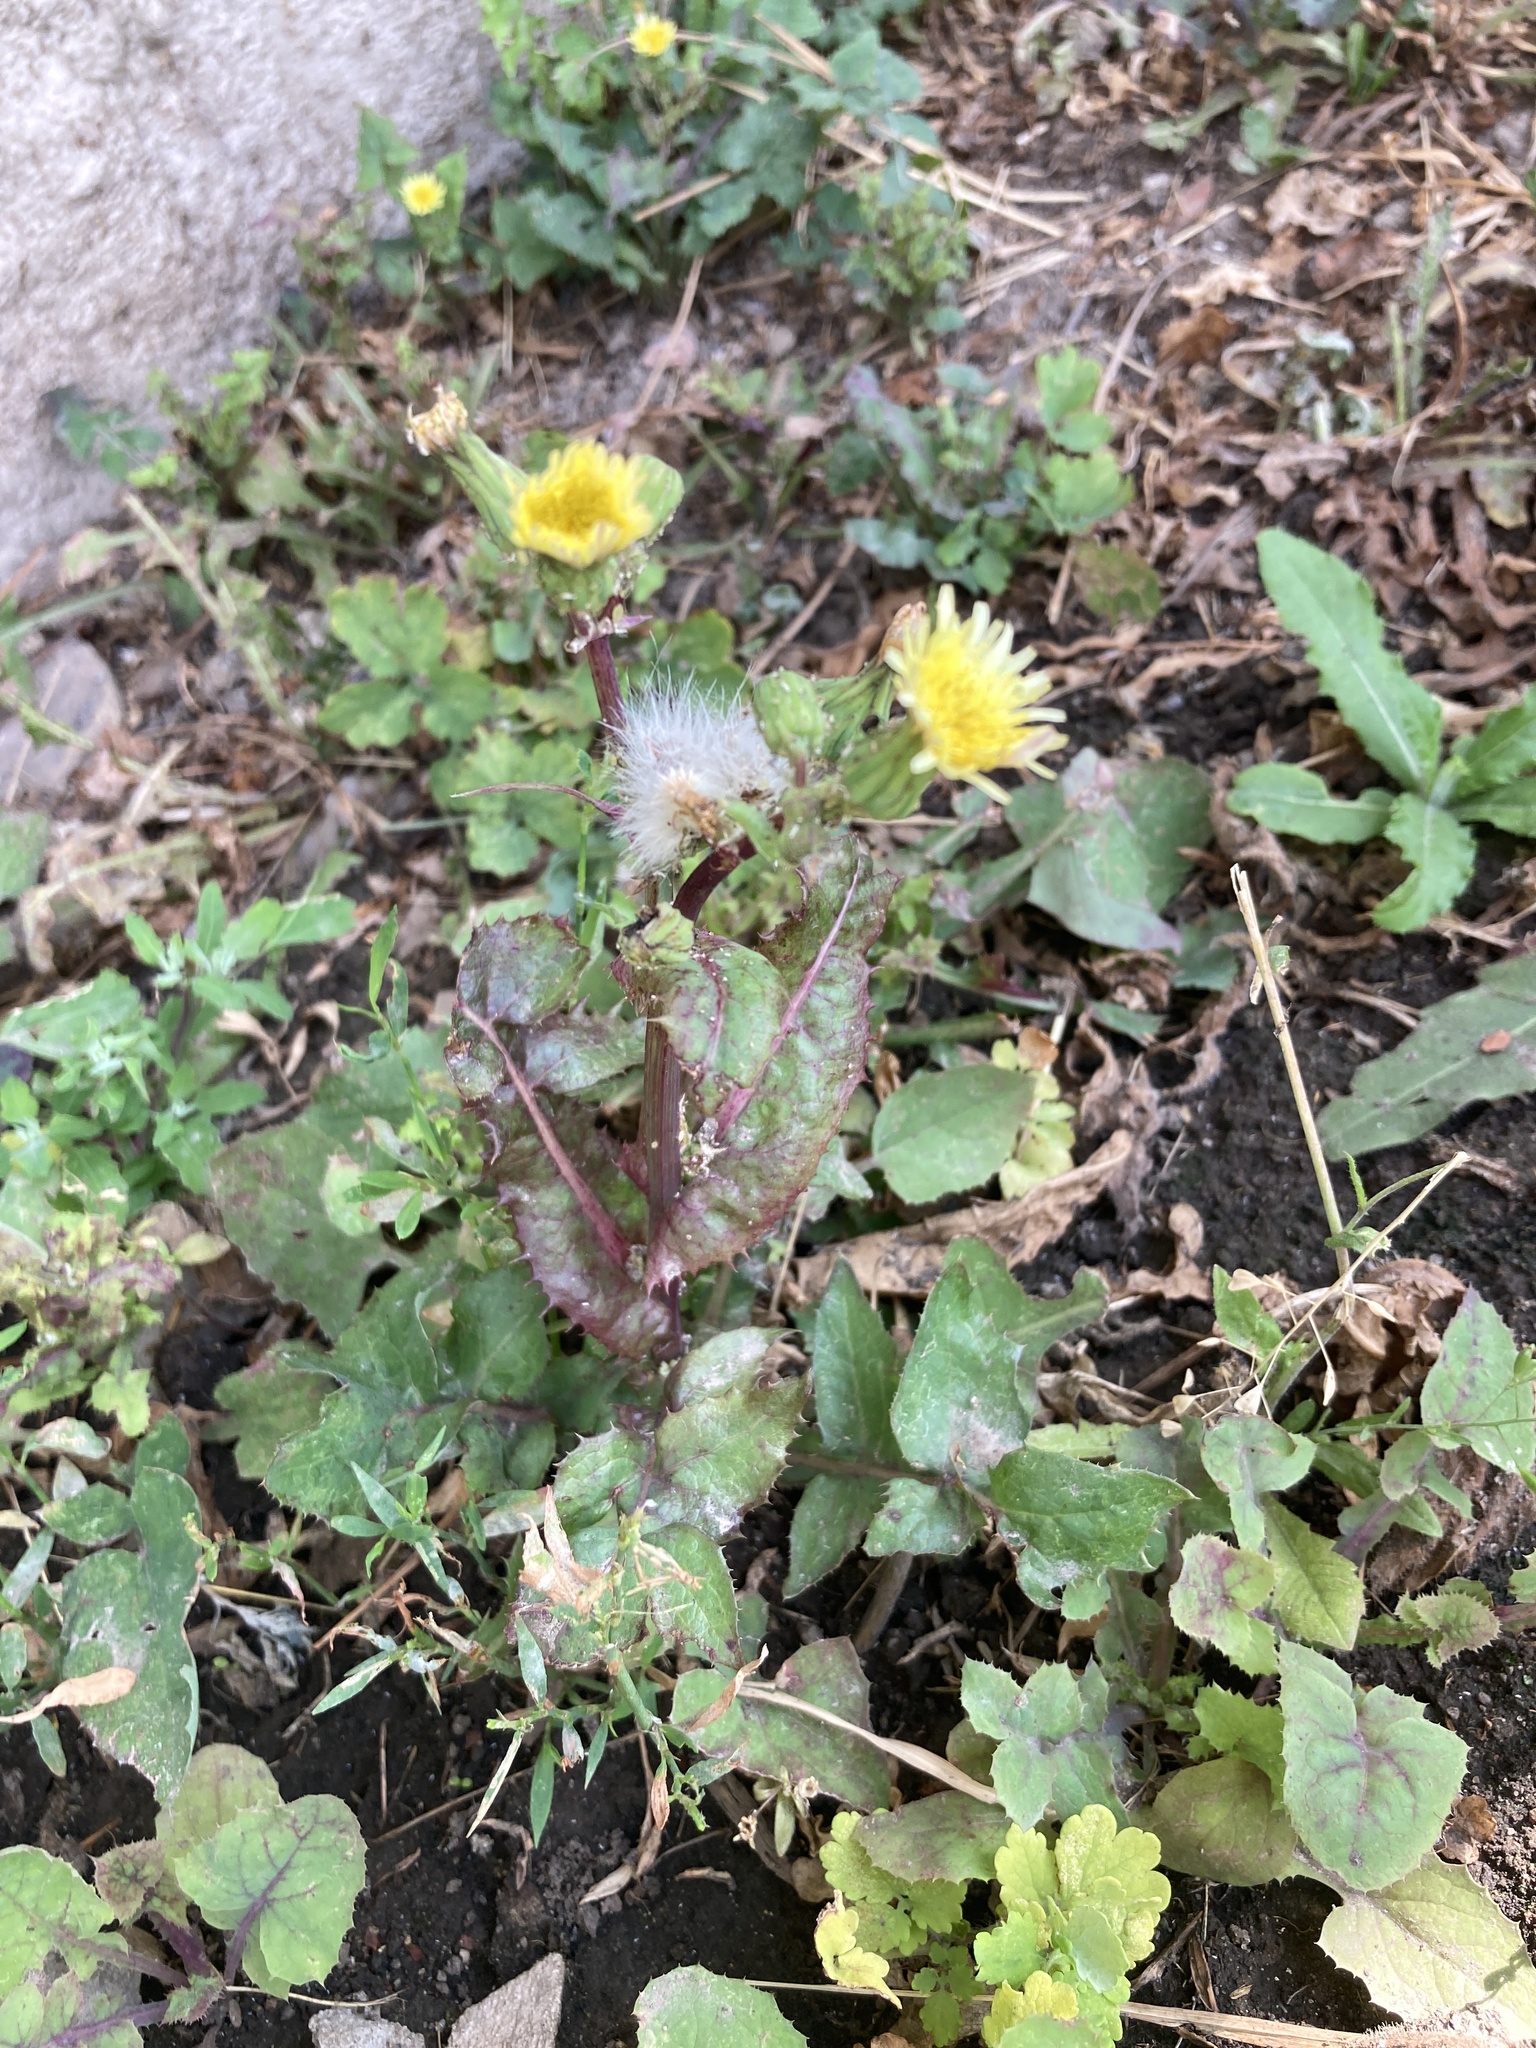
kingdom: Plantae
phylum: Tracheophyta
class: Magnoliopsida
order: Asterales
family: Asteraceae
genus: Sonchus
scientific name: Sonchus oleraceus
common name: Common sowthistle
